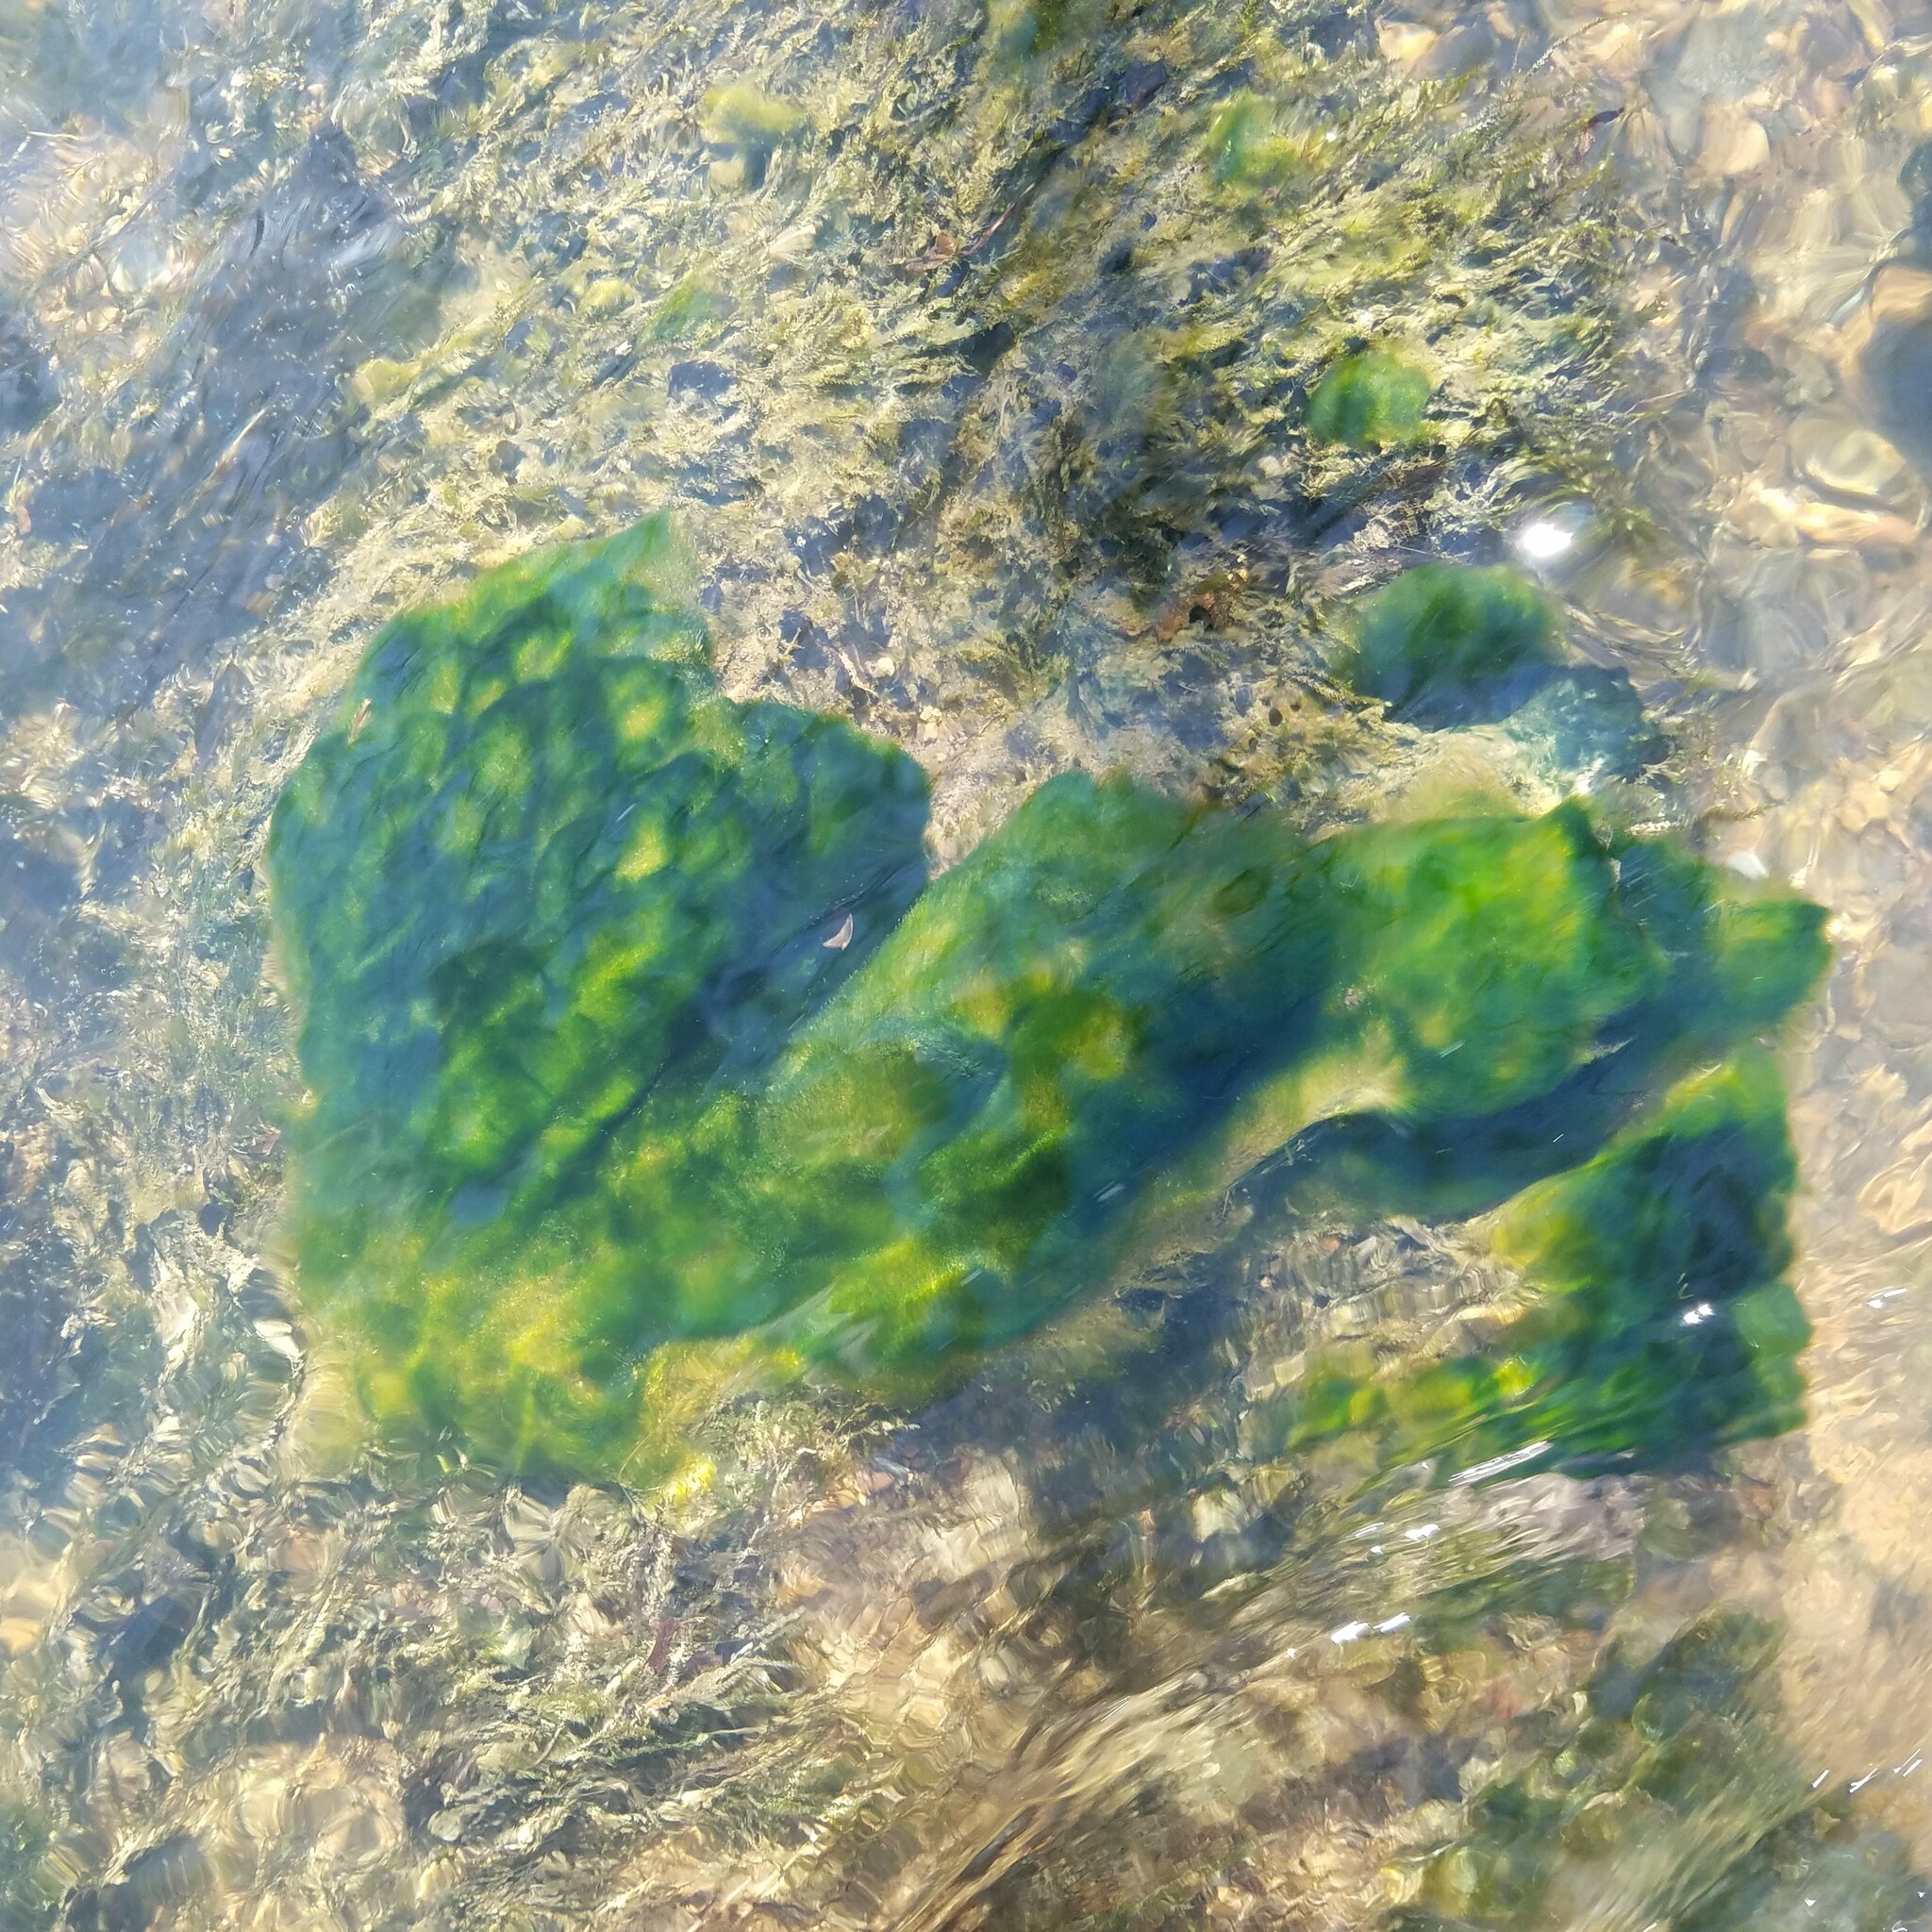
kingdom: Chromista
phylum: Ochrophyta
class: Xanthophyceae
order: Vaucheriales
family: Vaucheriaceae
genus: Vaucheria
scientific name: Vaucheria
